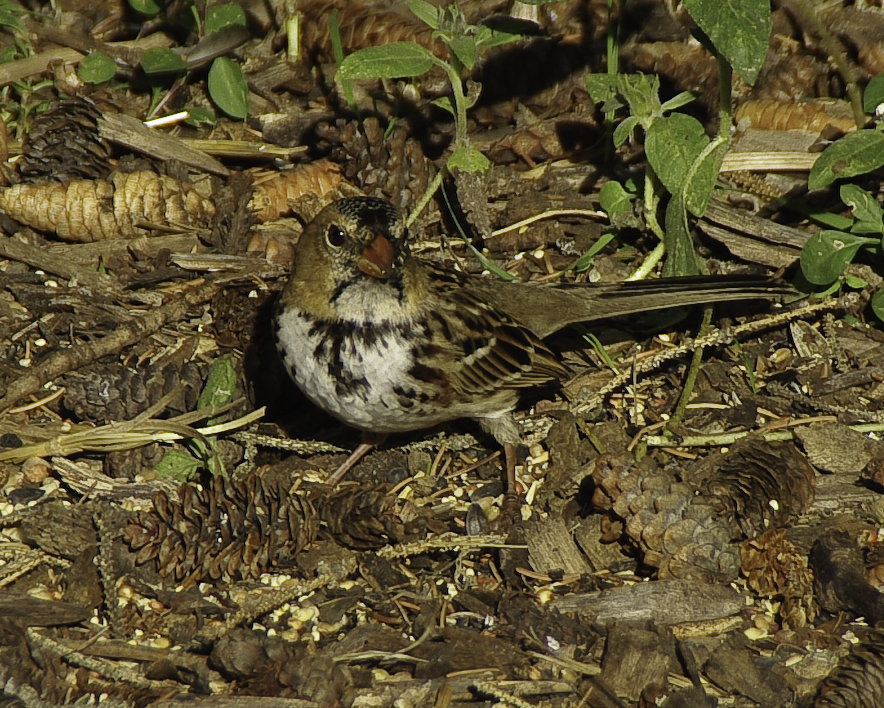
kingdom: Animalia
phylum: Chordata
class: Aves
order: Passeriformes
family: Passerellidae
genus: Zonotrichia
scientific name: Zonotrichia querula
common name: Harris's sparrow
